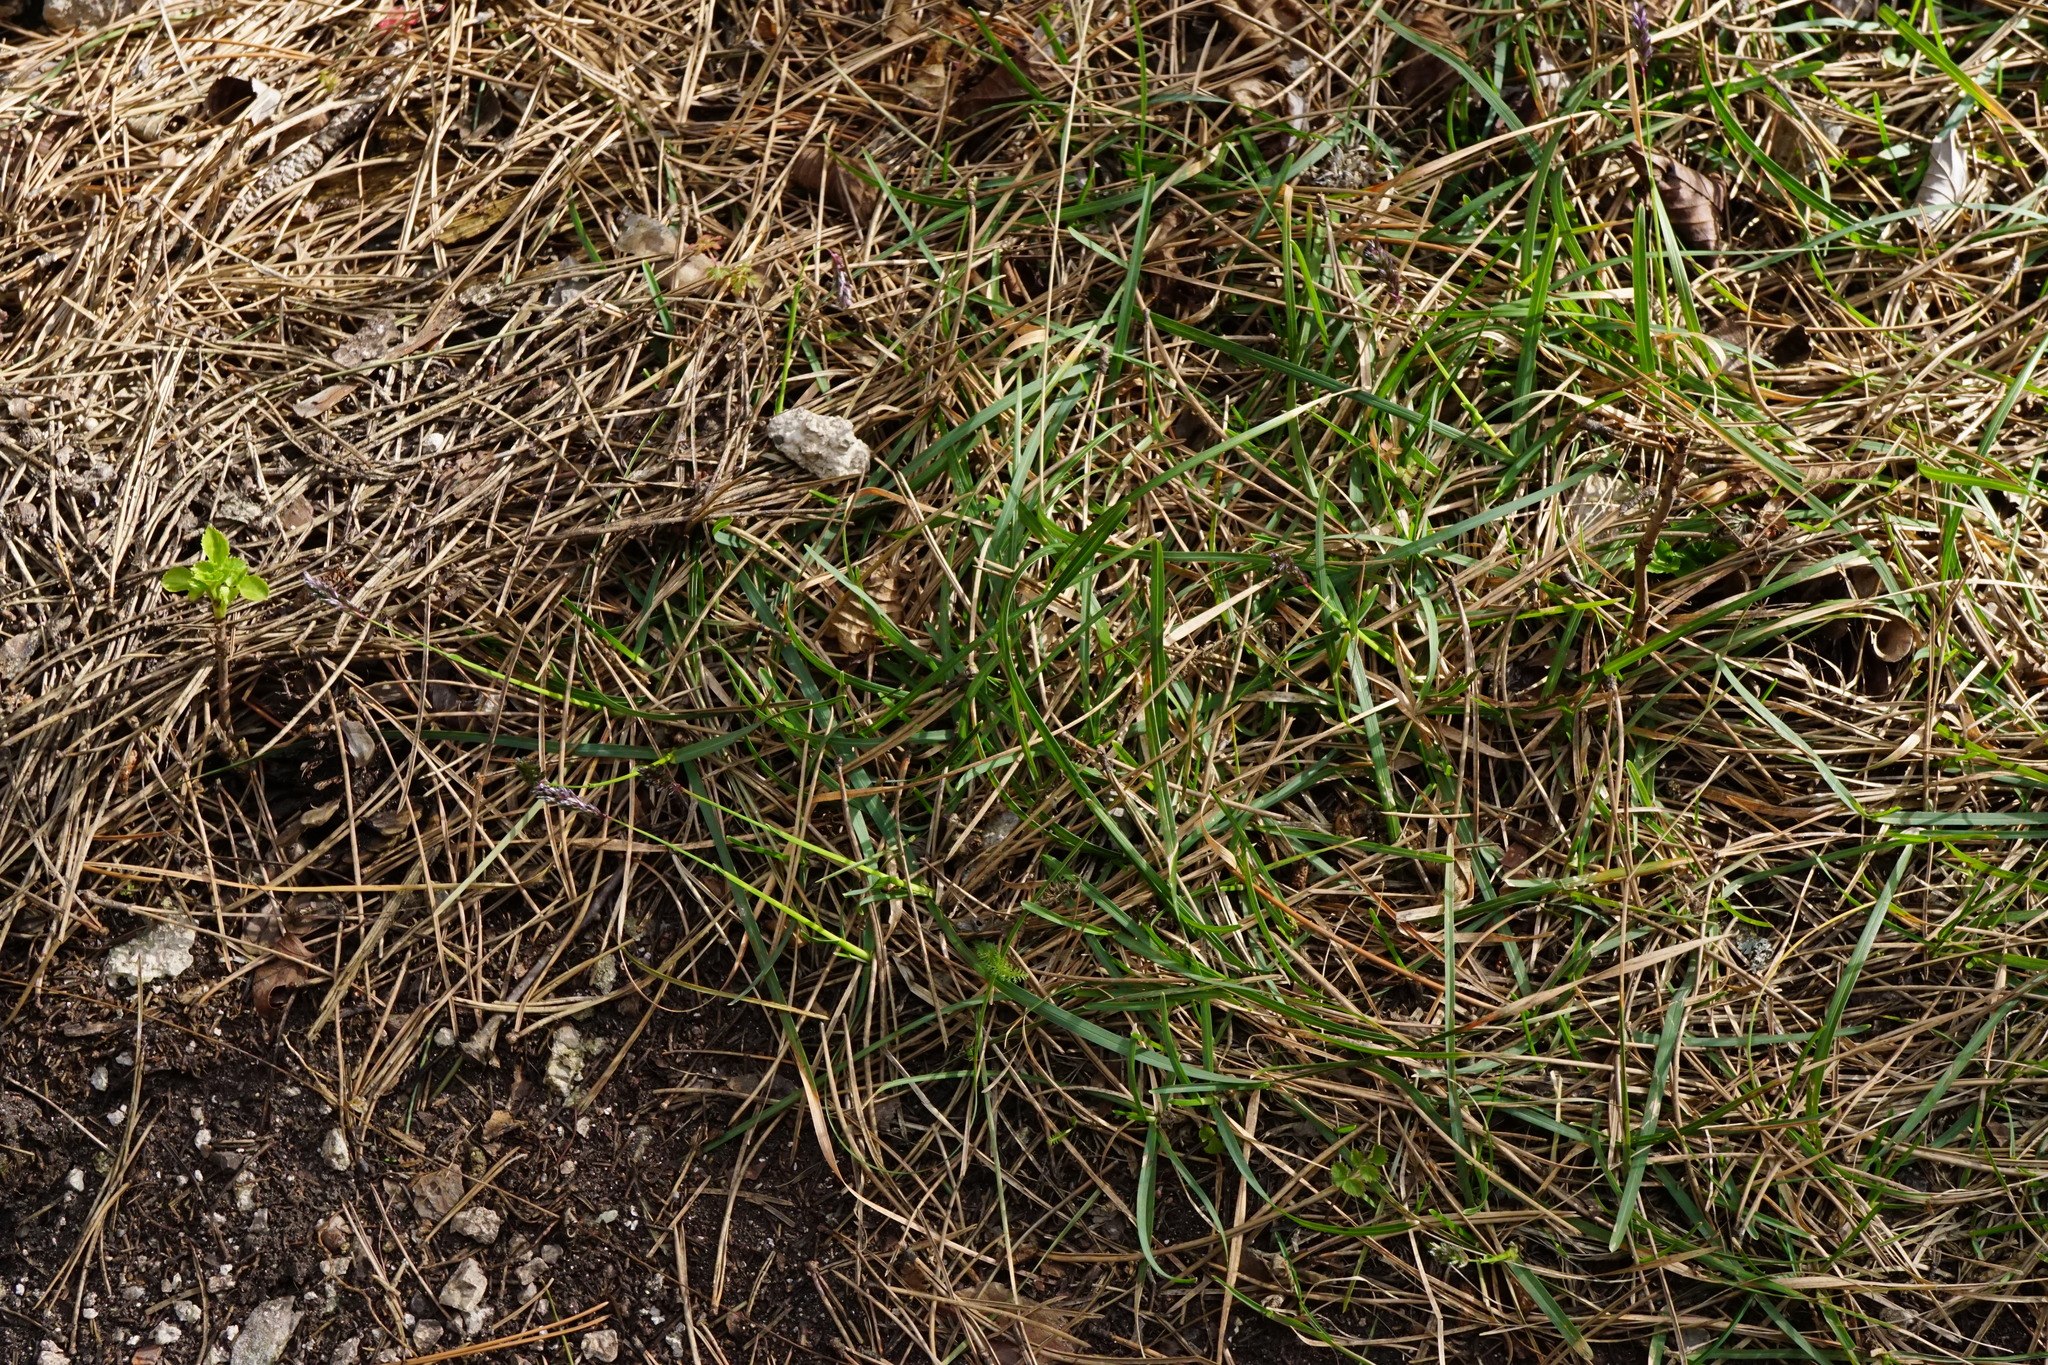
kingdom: Plantae
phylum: Tracheophyta
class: Liliopsida
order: Poales
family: Poaceae
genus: Sesleria
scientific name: Sesleria albicans
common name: Blue moor-grass
